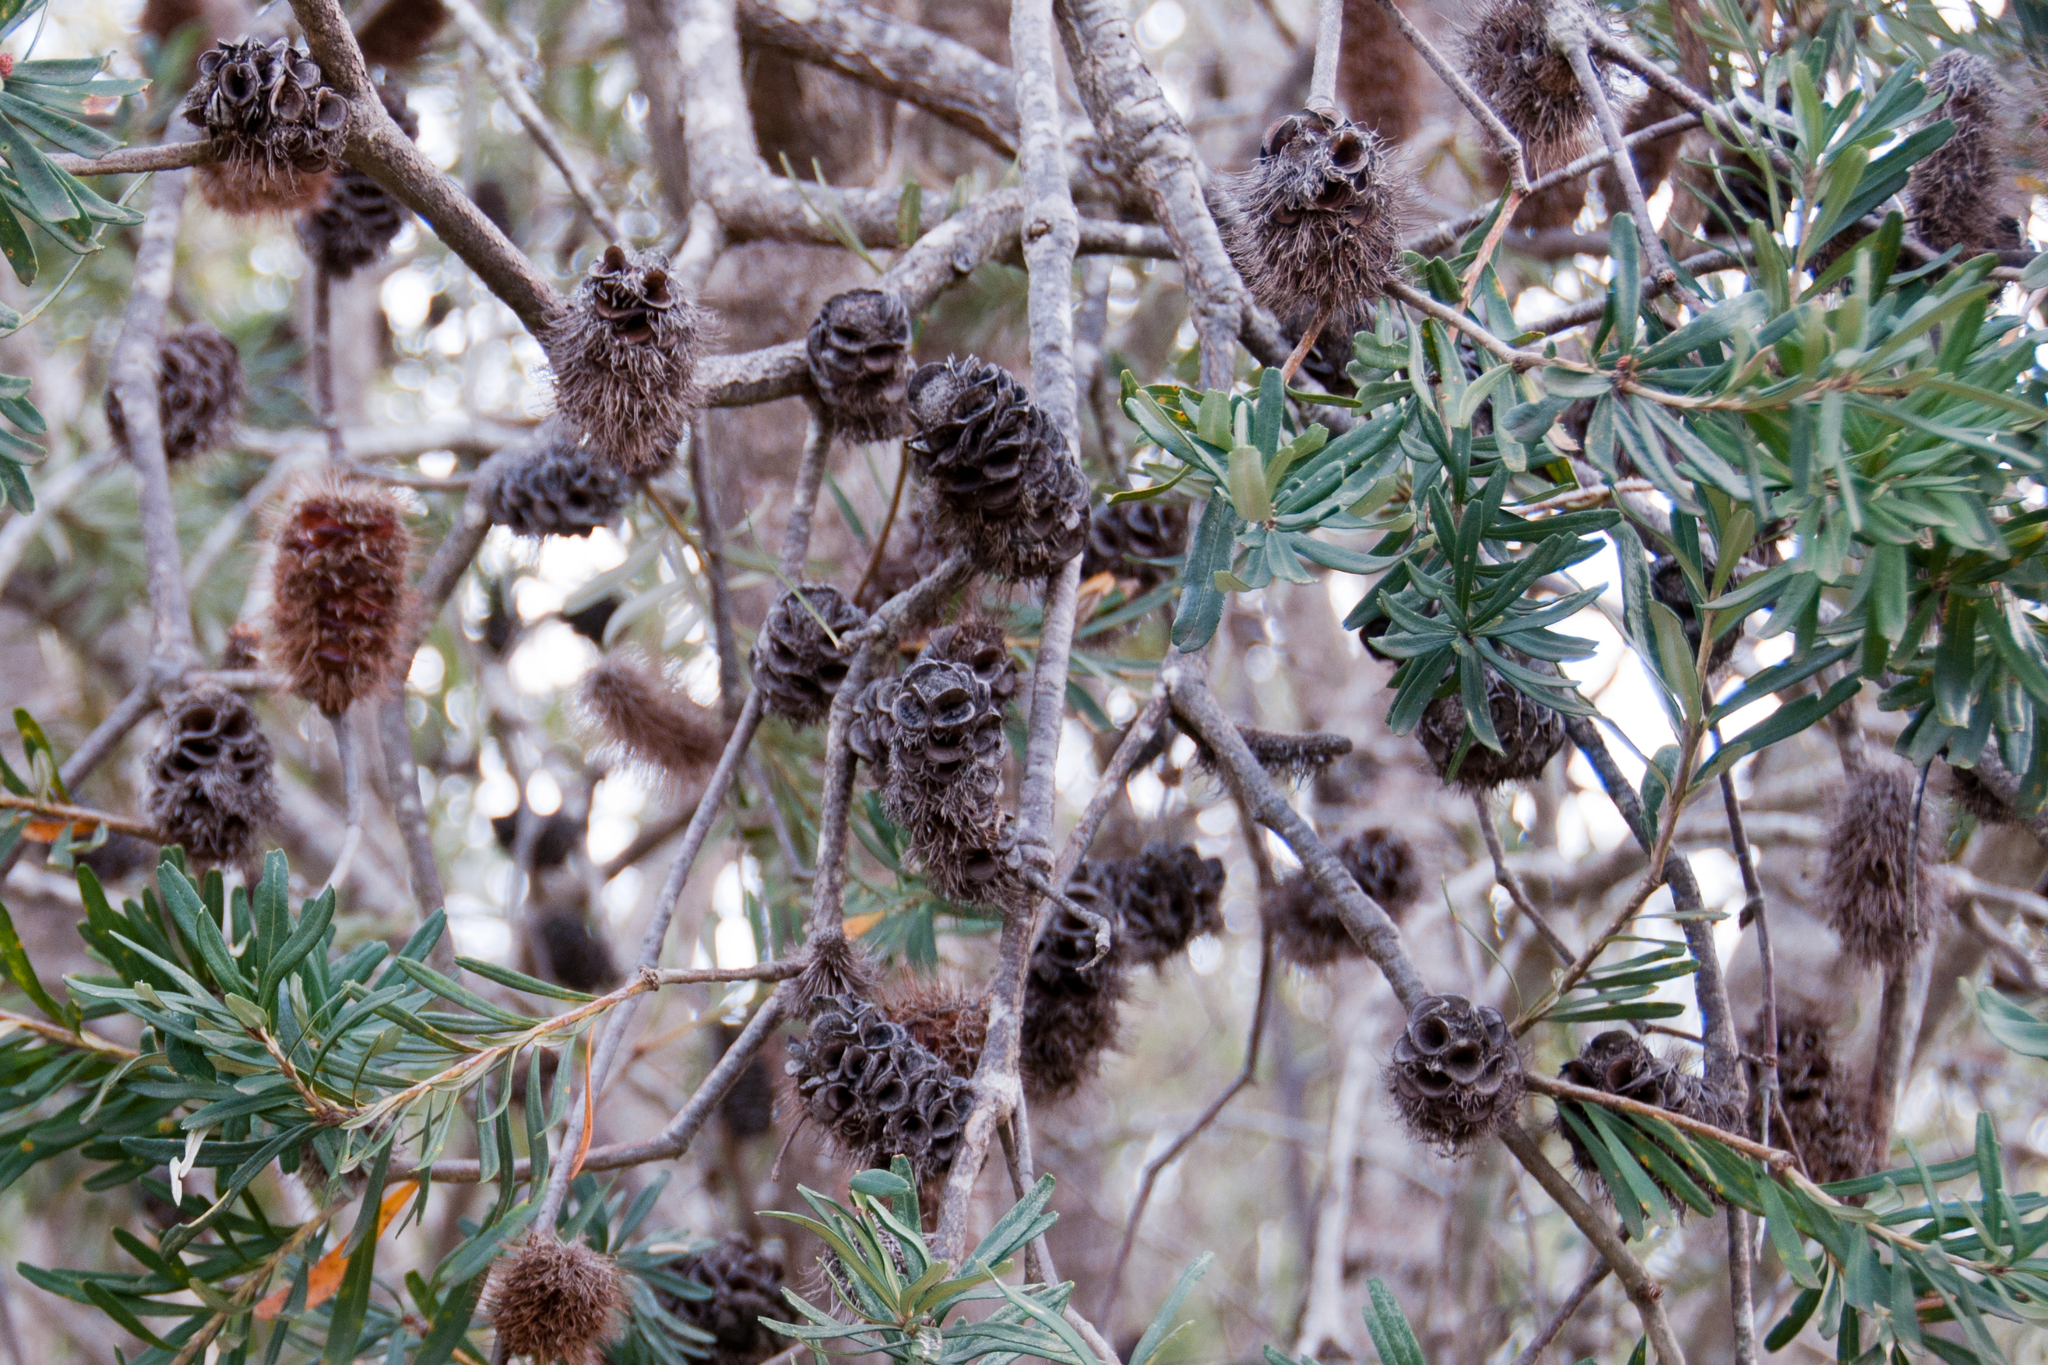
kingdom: Plantae
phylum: Tracheophyta
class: Magnoliopsida
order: Proteales
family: Proteaceae
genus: Banksia
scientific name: Banksia marginata
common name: Silver banksia
